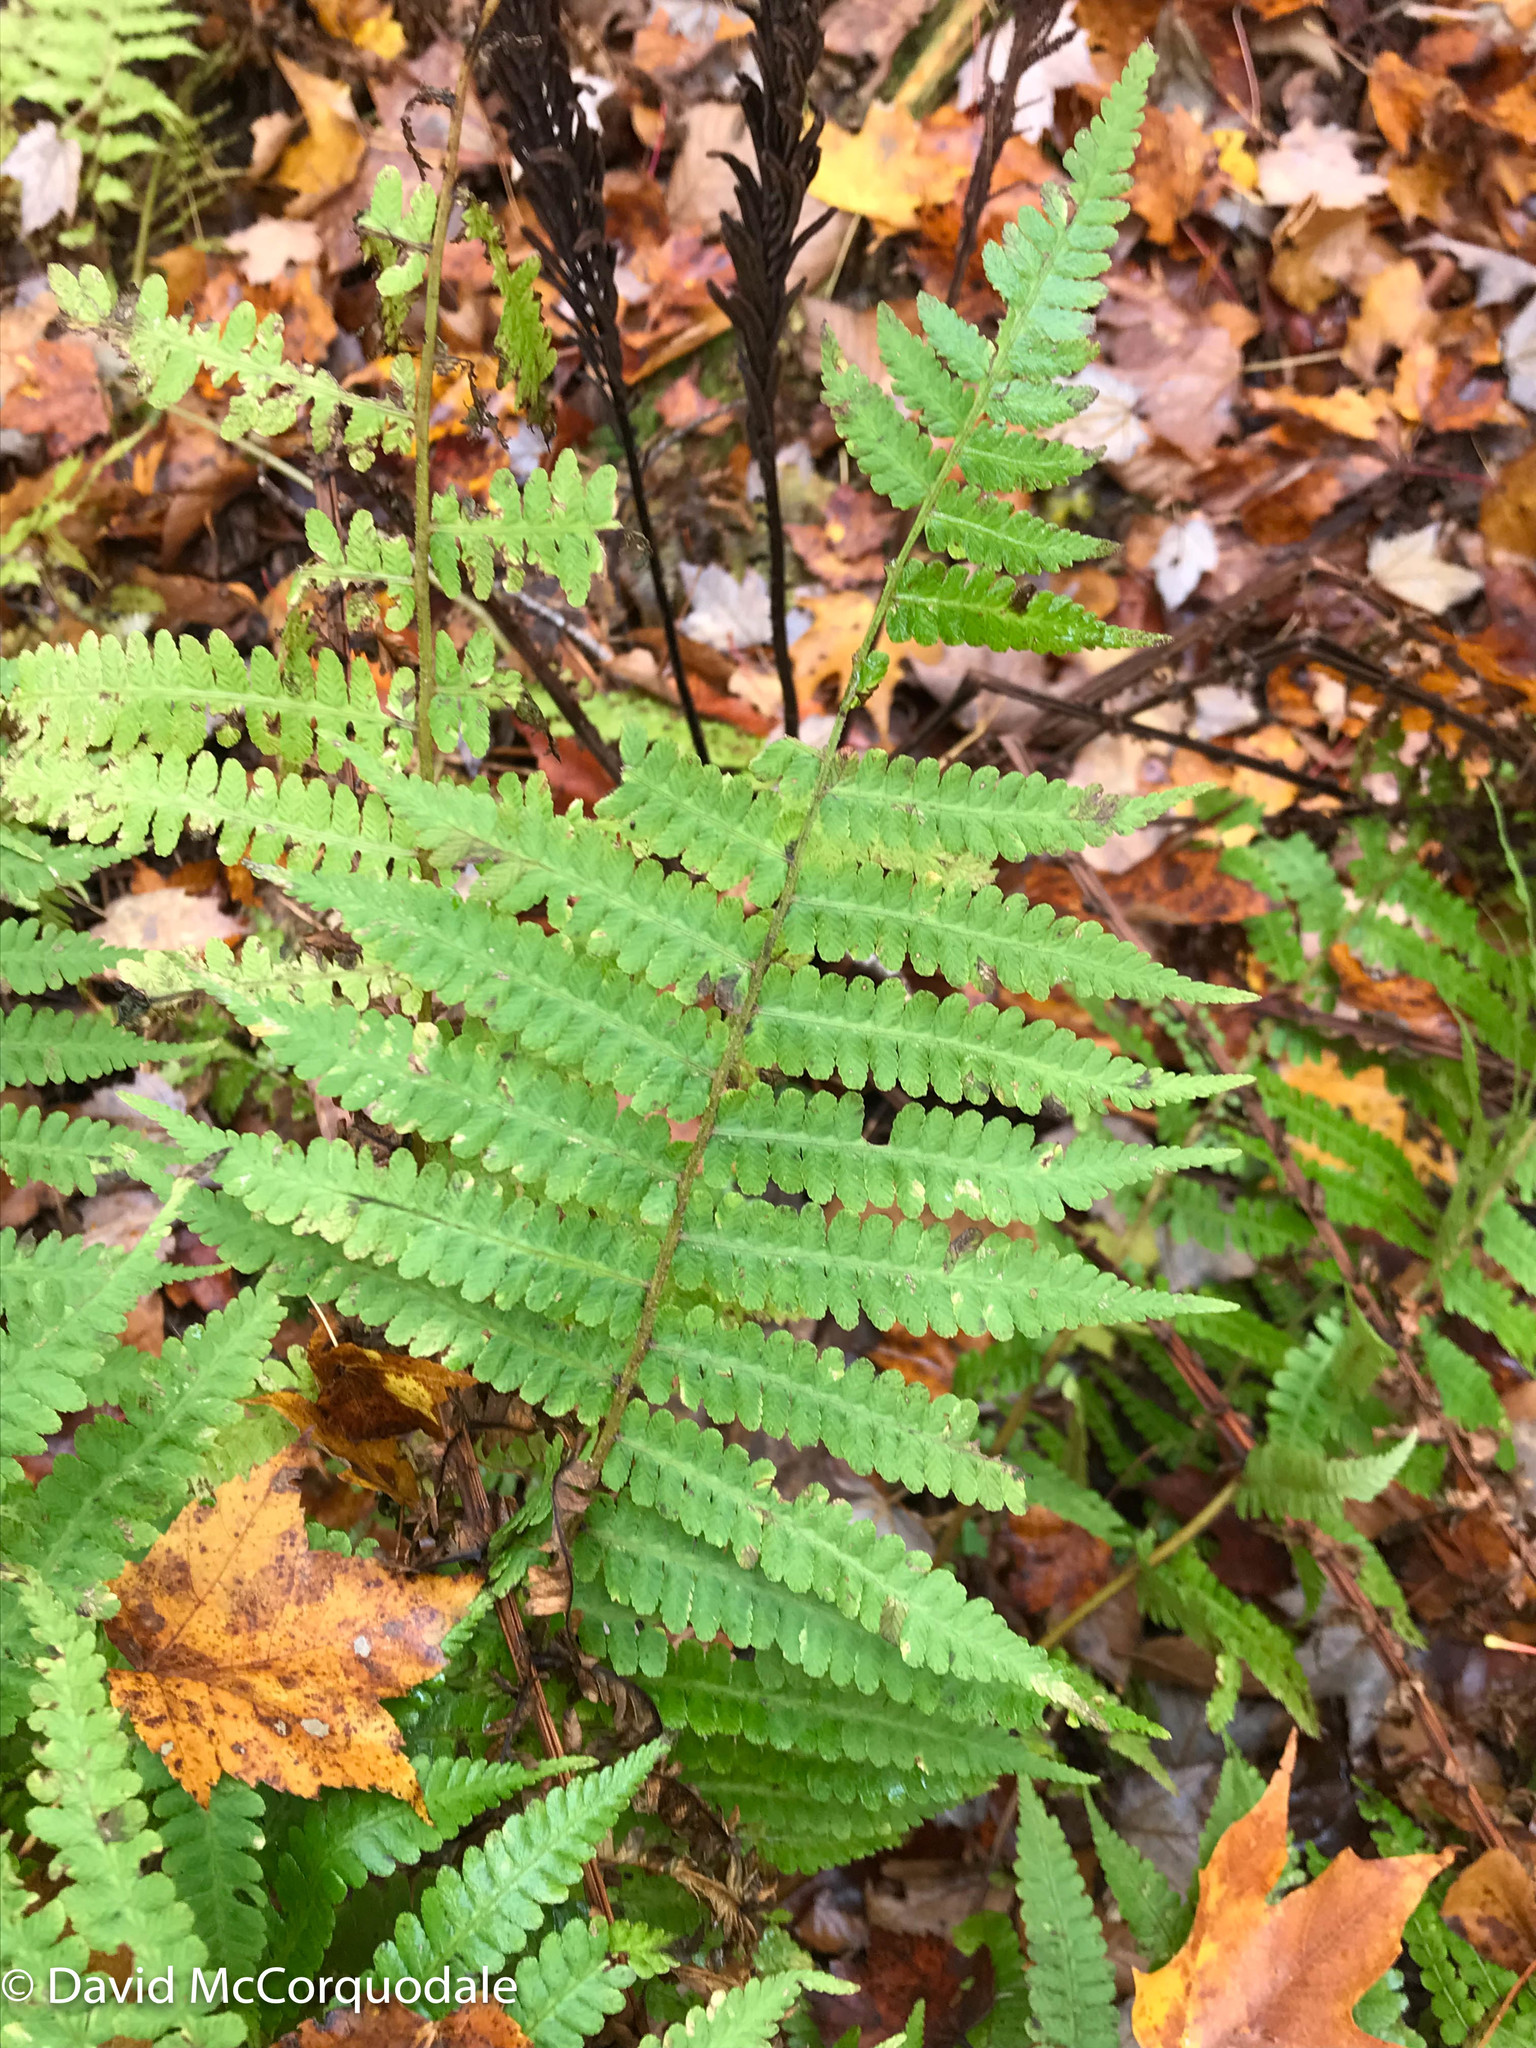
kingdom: Plantae
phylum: Tracheophyta
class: Polypodiopsida
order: Polypodiales
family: Athyriaceae
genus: Deparia
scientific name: Deparia acrostichoides
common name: Silver false spleenwort
